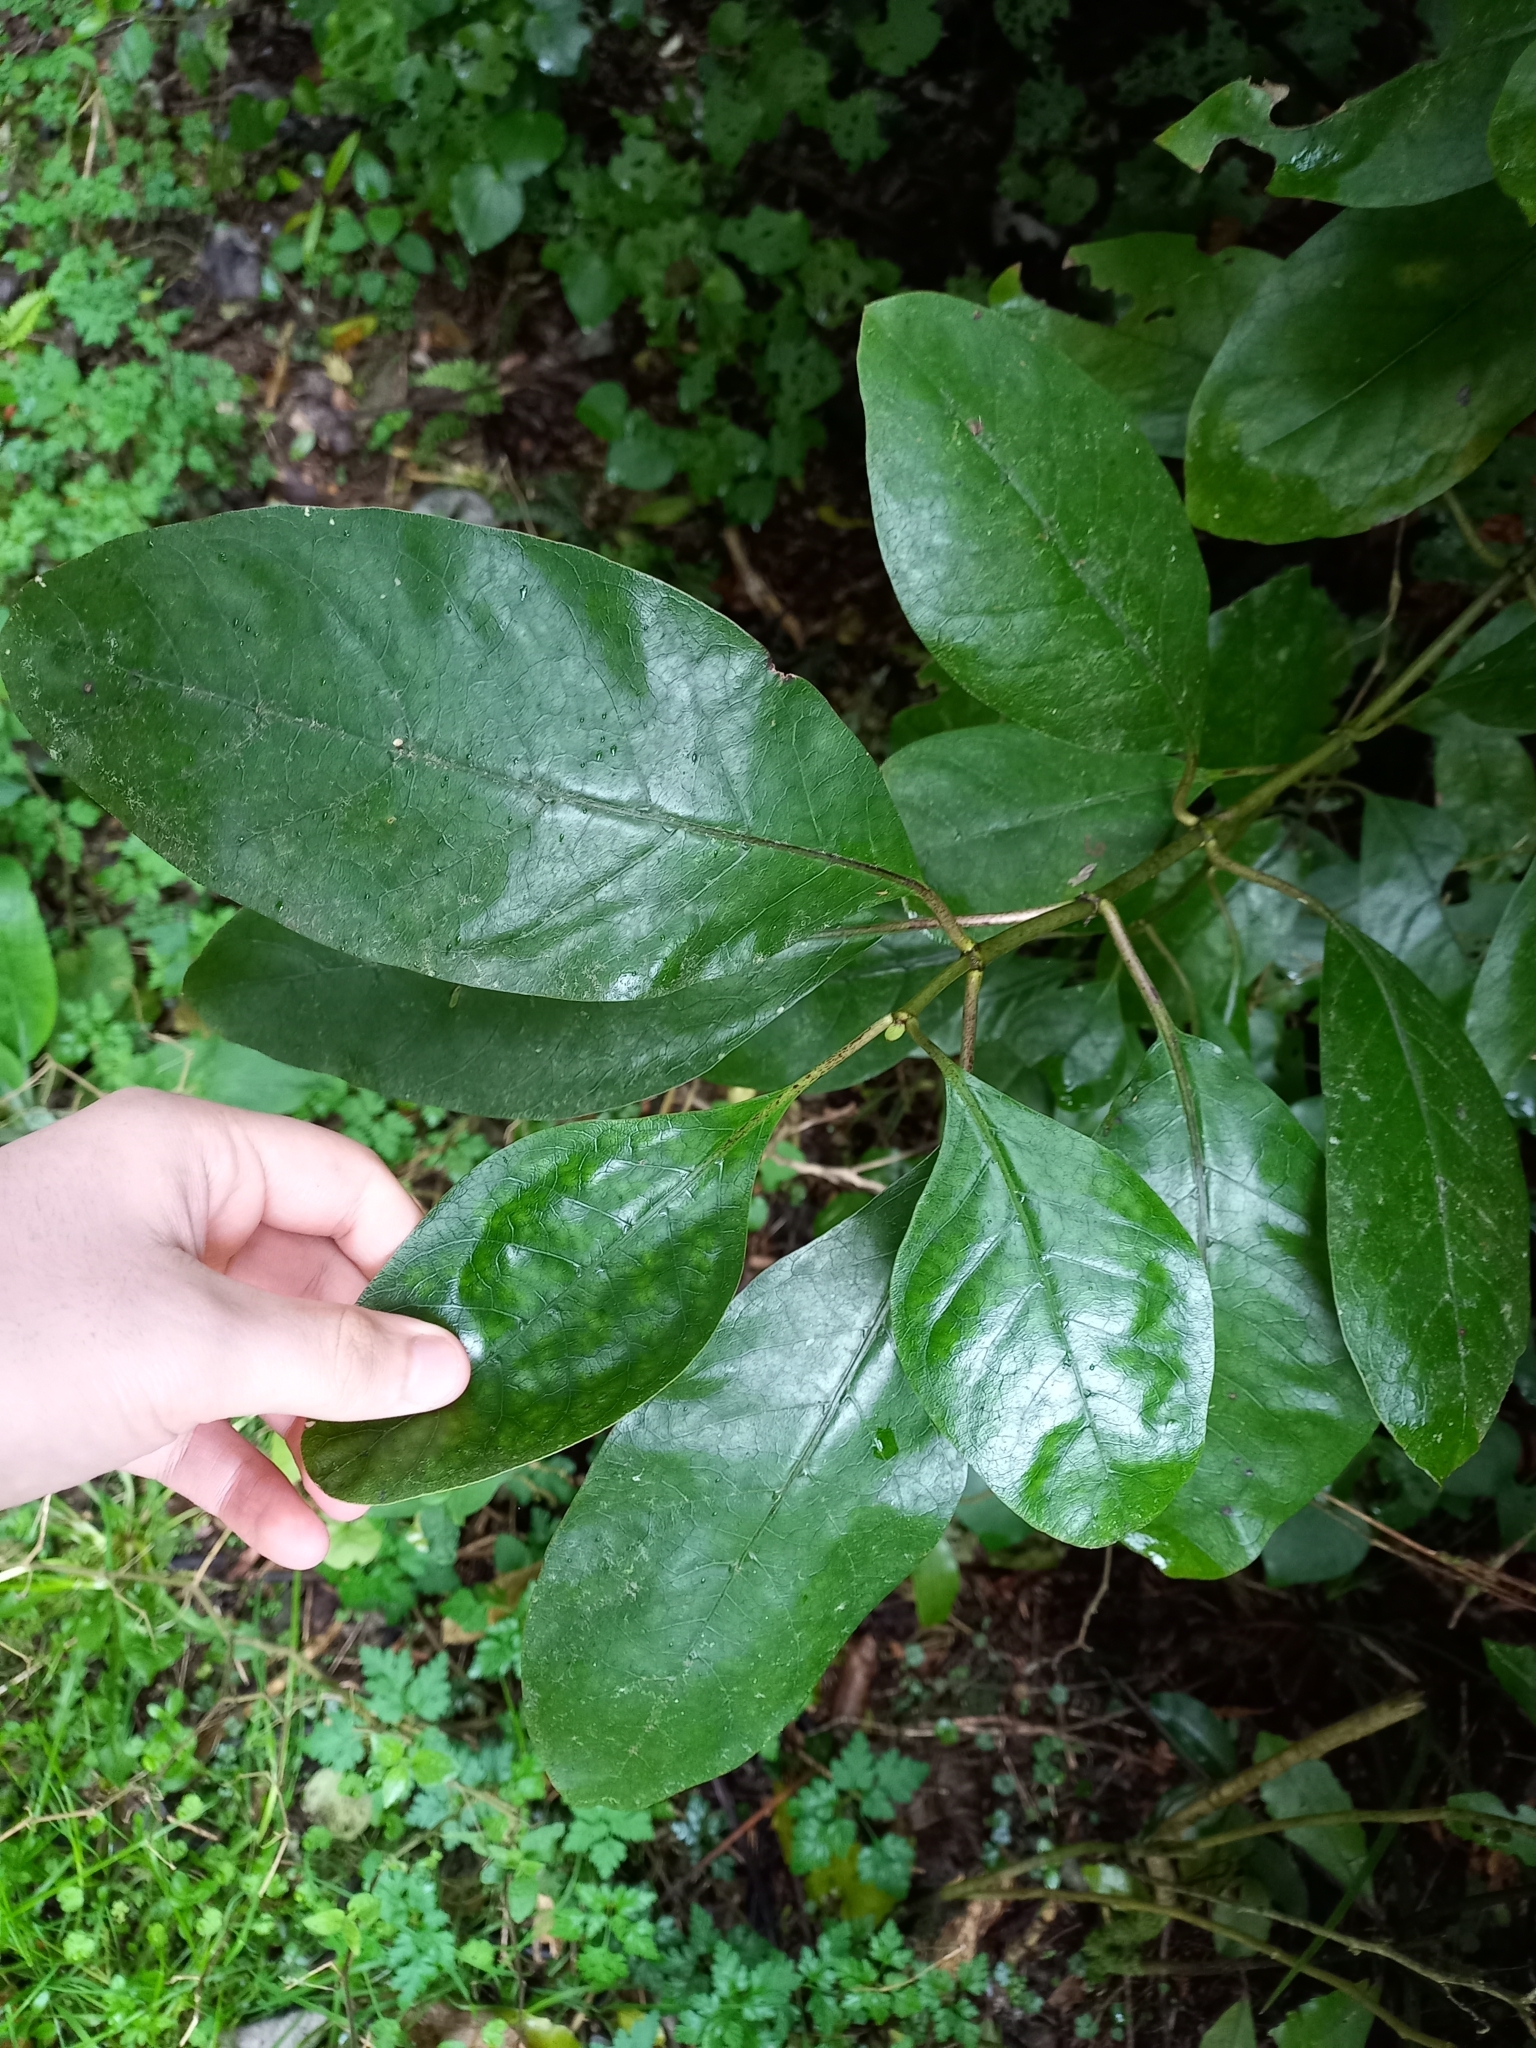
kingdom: Plantae
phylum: Tracheophyta
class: Magnoliopsida
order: Gentianales
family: Rubiaceae
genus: Coprosma
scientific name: Coprosma autumnalis
